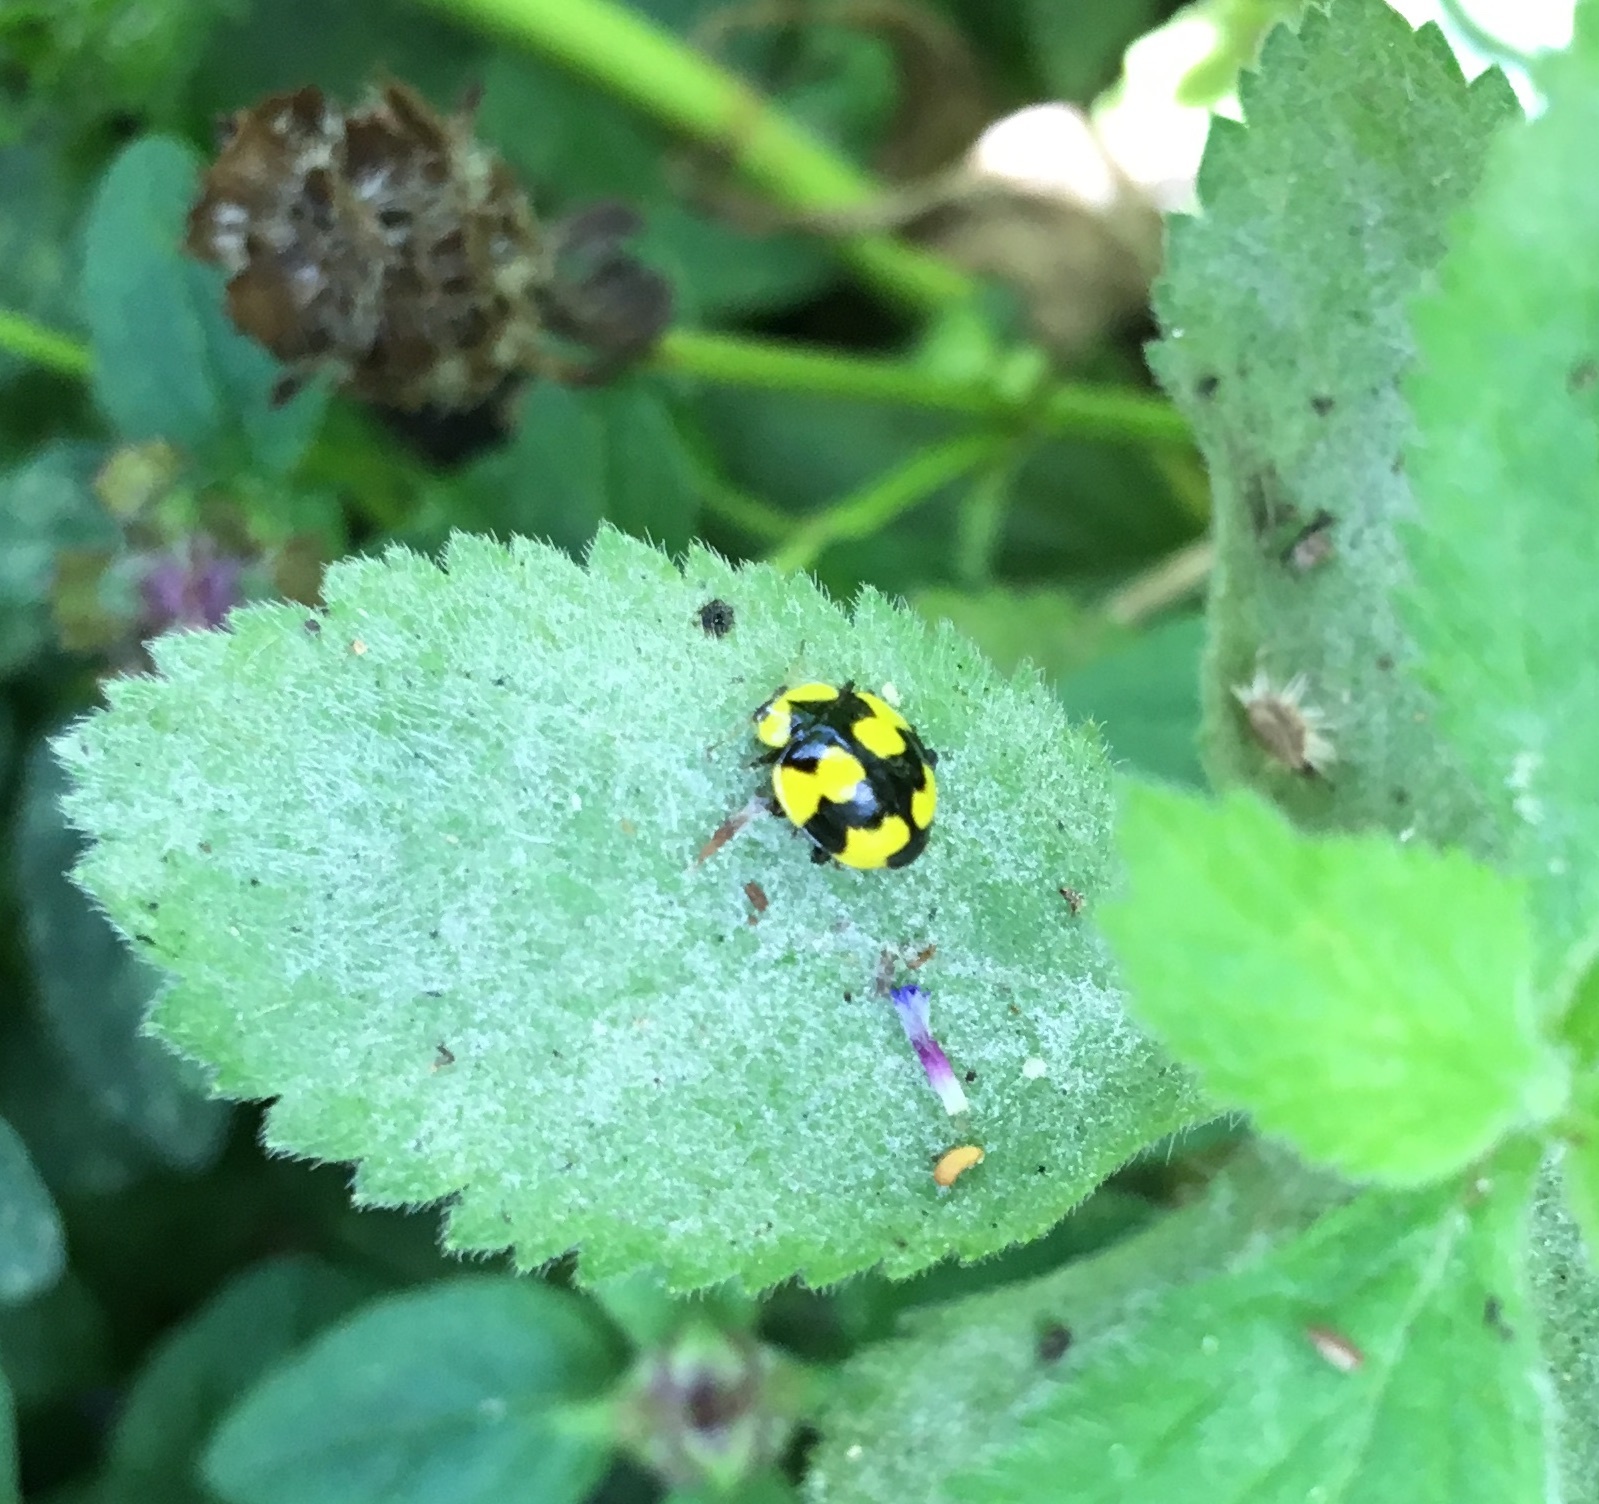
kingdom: Animalia
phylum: Arthropoda
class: Insecta
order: Coleoptera
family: Coccinellidae
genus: Illeis
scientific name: Illeis galbula
